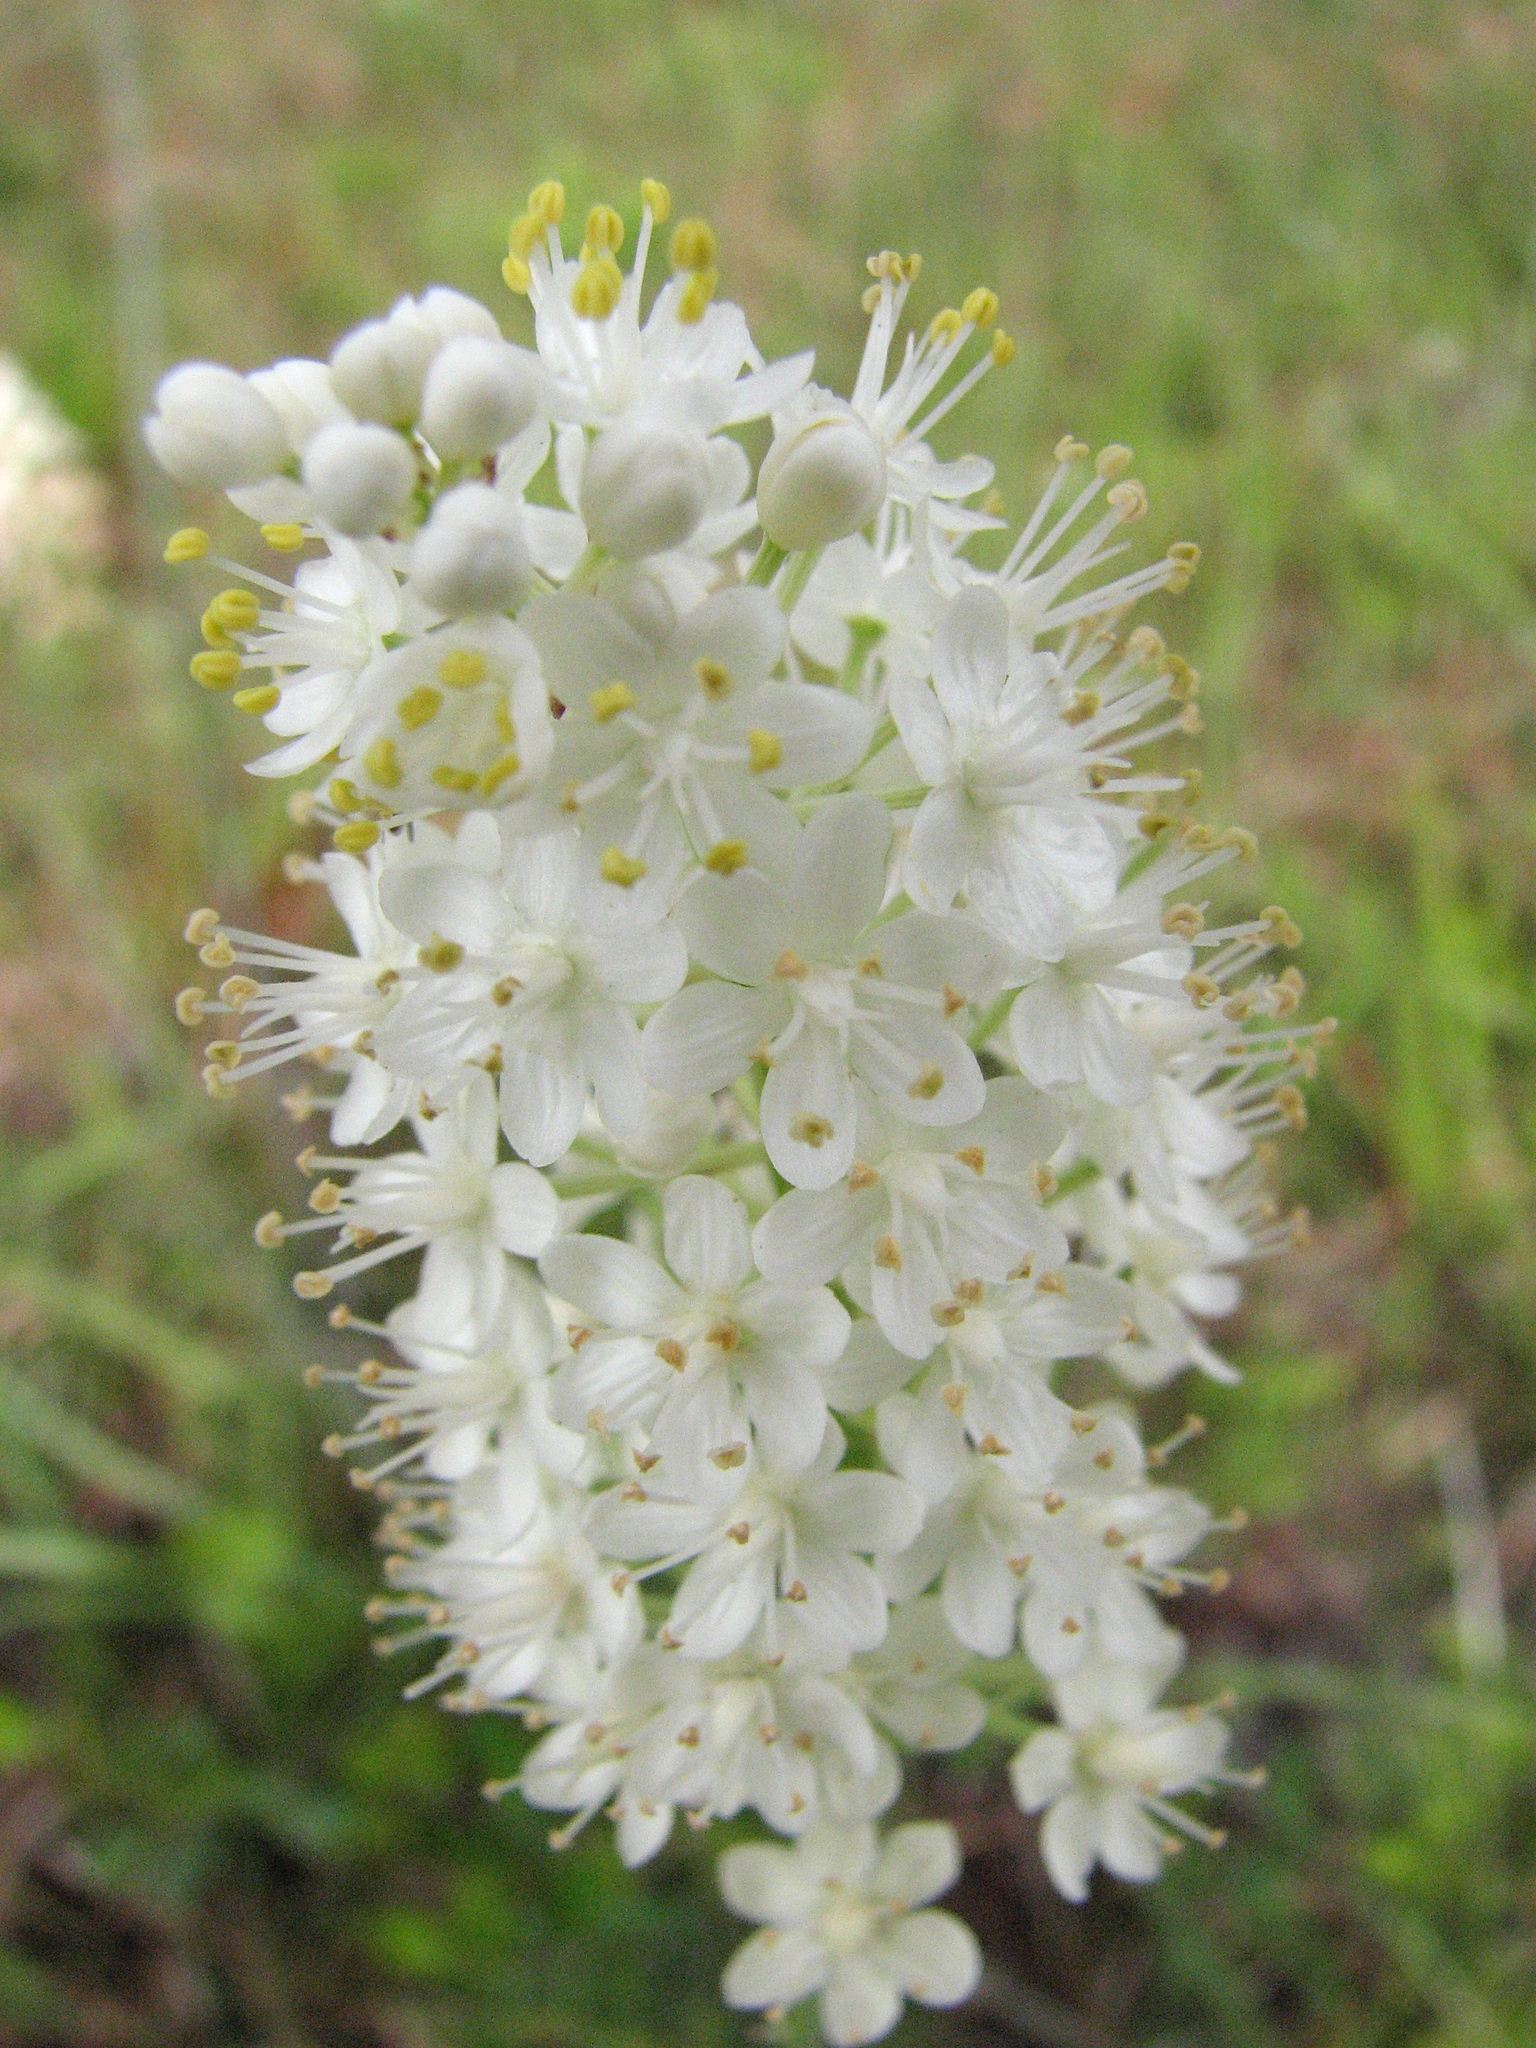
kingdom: Plantae
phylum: Tracheophyta
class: Liliopsida
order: Liliales
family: Melanthiaceae
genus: Stenanthium
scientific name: Stenanthium densum
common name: Crow-poison
